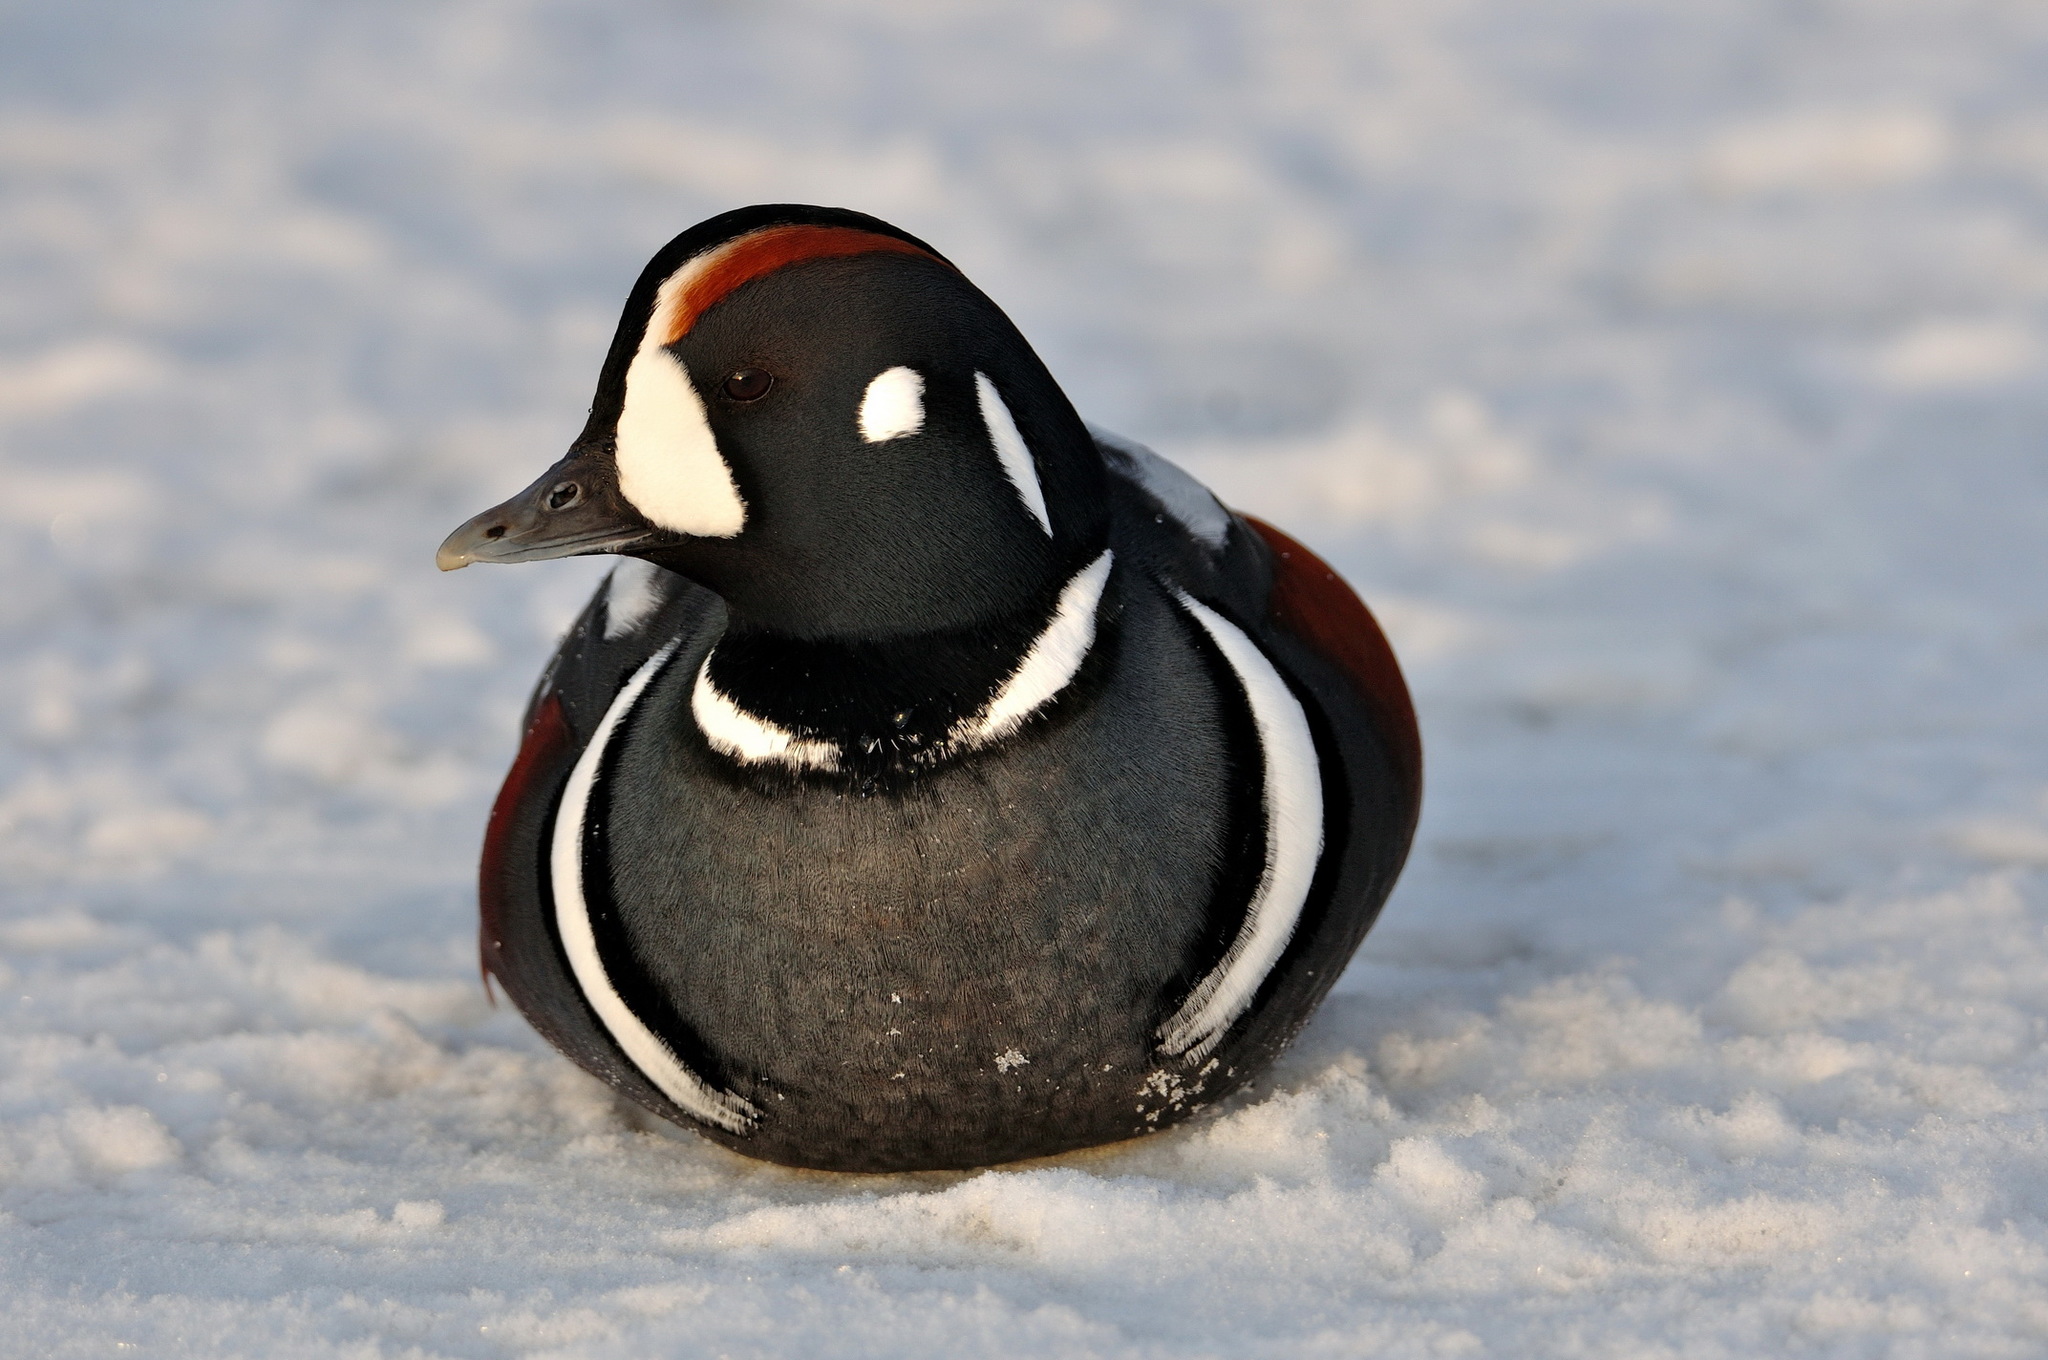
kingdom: Animalia
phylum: Chordata
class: Aves
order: Anseriformes
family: Anatidae
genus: Histrionicus
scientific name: Histrionicus histrionicus
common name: Harlequin duck
